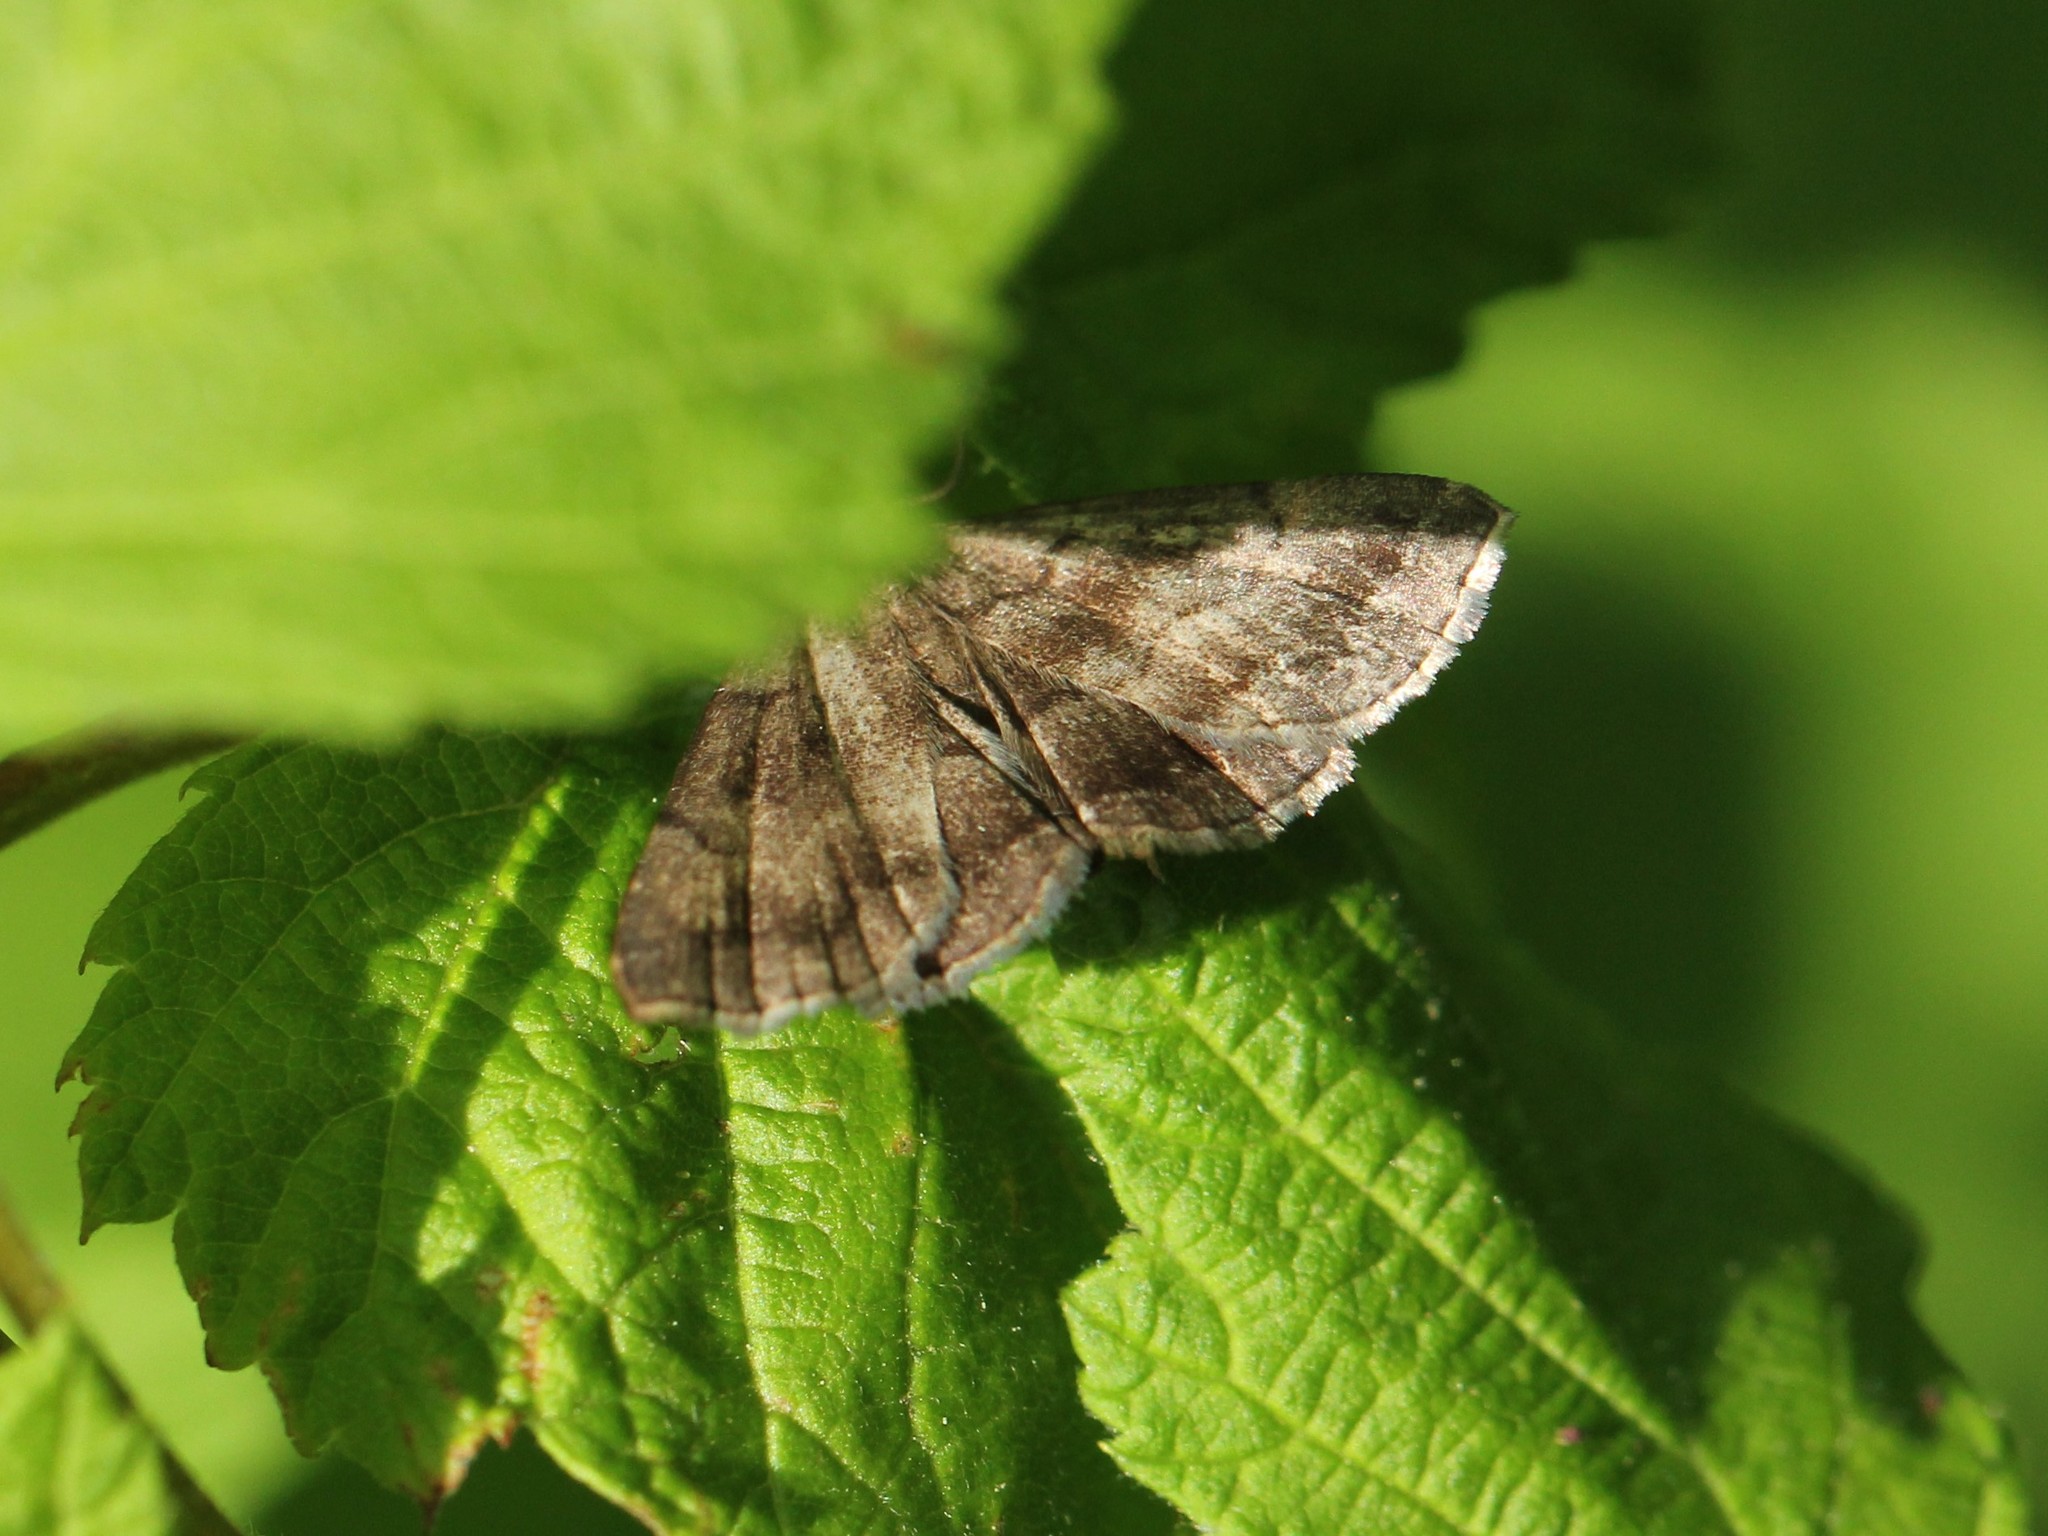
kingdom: Animalia
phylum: Arthropoda
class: Insecta
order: Lepidoptera
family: Erebidae
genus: Phalaenostola
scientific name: Phalaenostola larentioides
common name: Black-banded owlet
